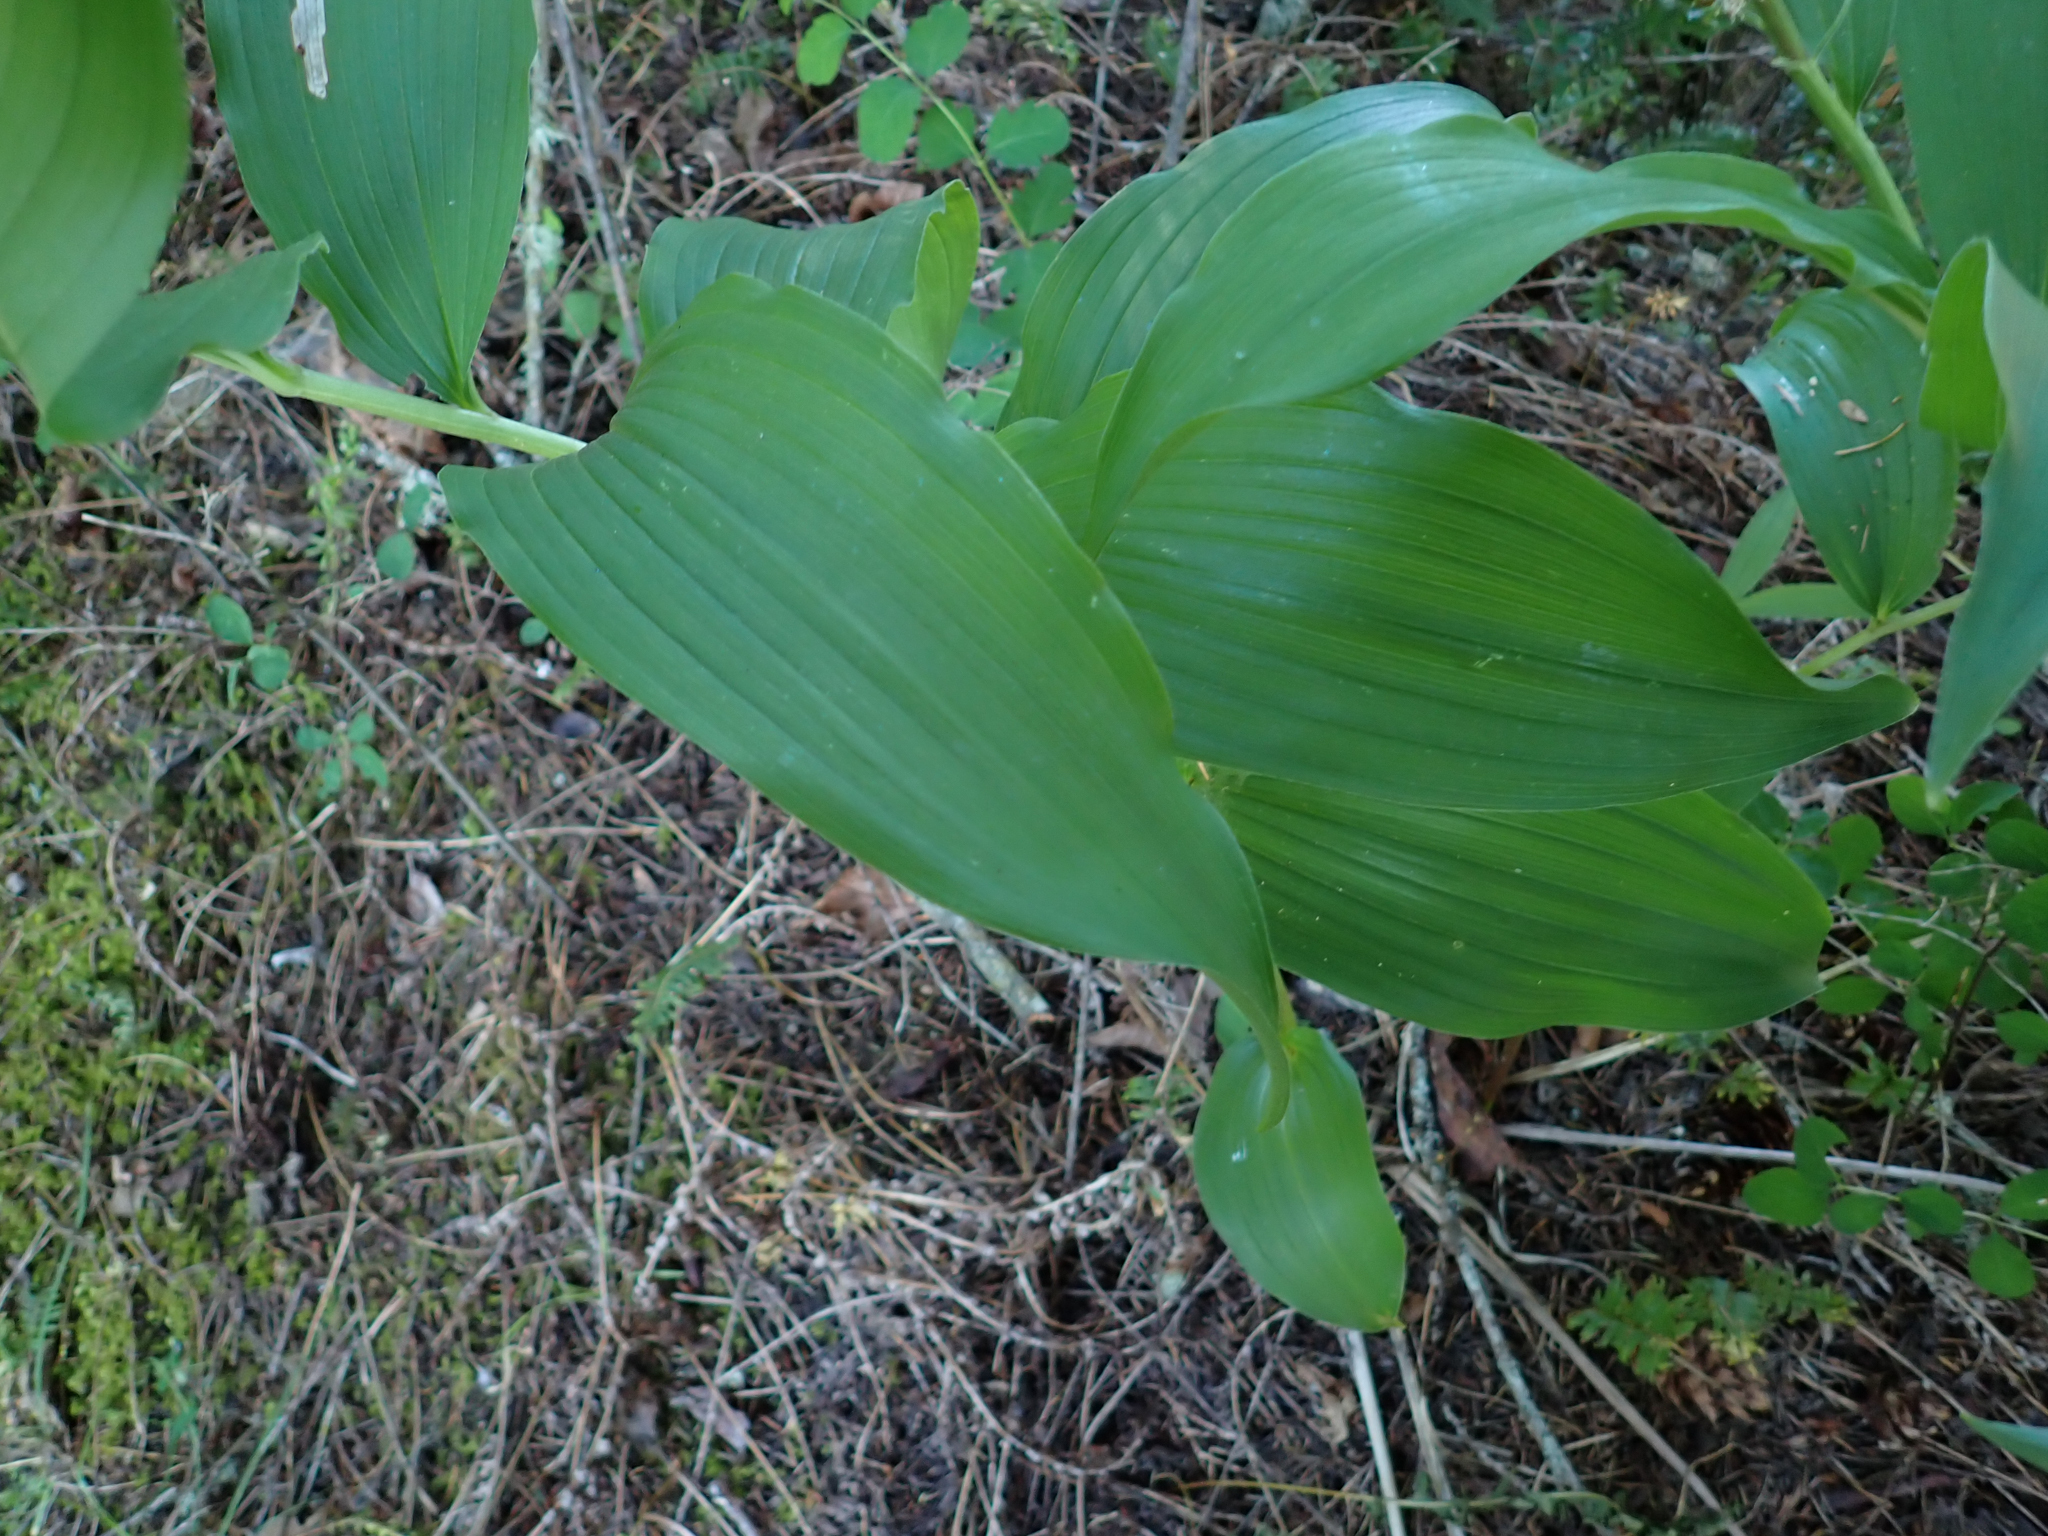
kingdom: Plantae
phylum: Tracheophyta
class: Liliopsida
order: Asparagales
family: Asparagaceae
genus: Maianthemum
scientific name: Maianthemum racemosum
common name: False spikenard
